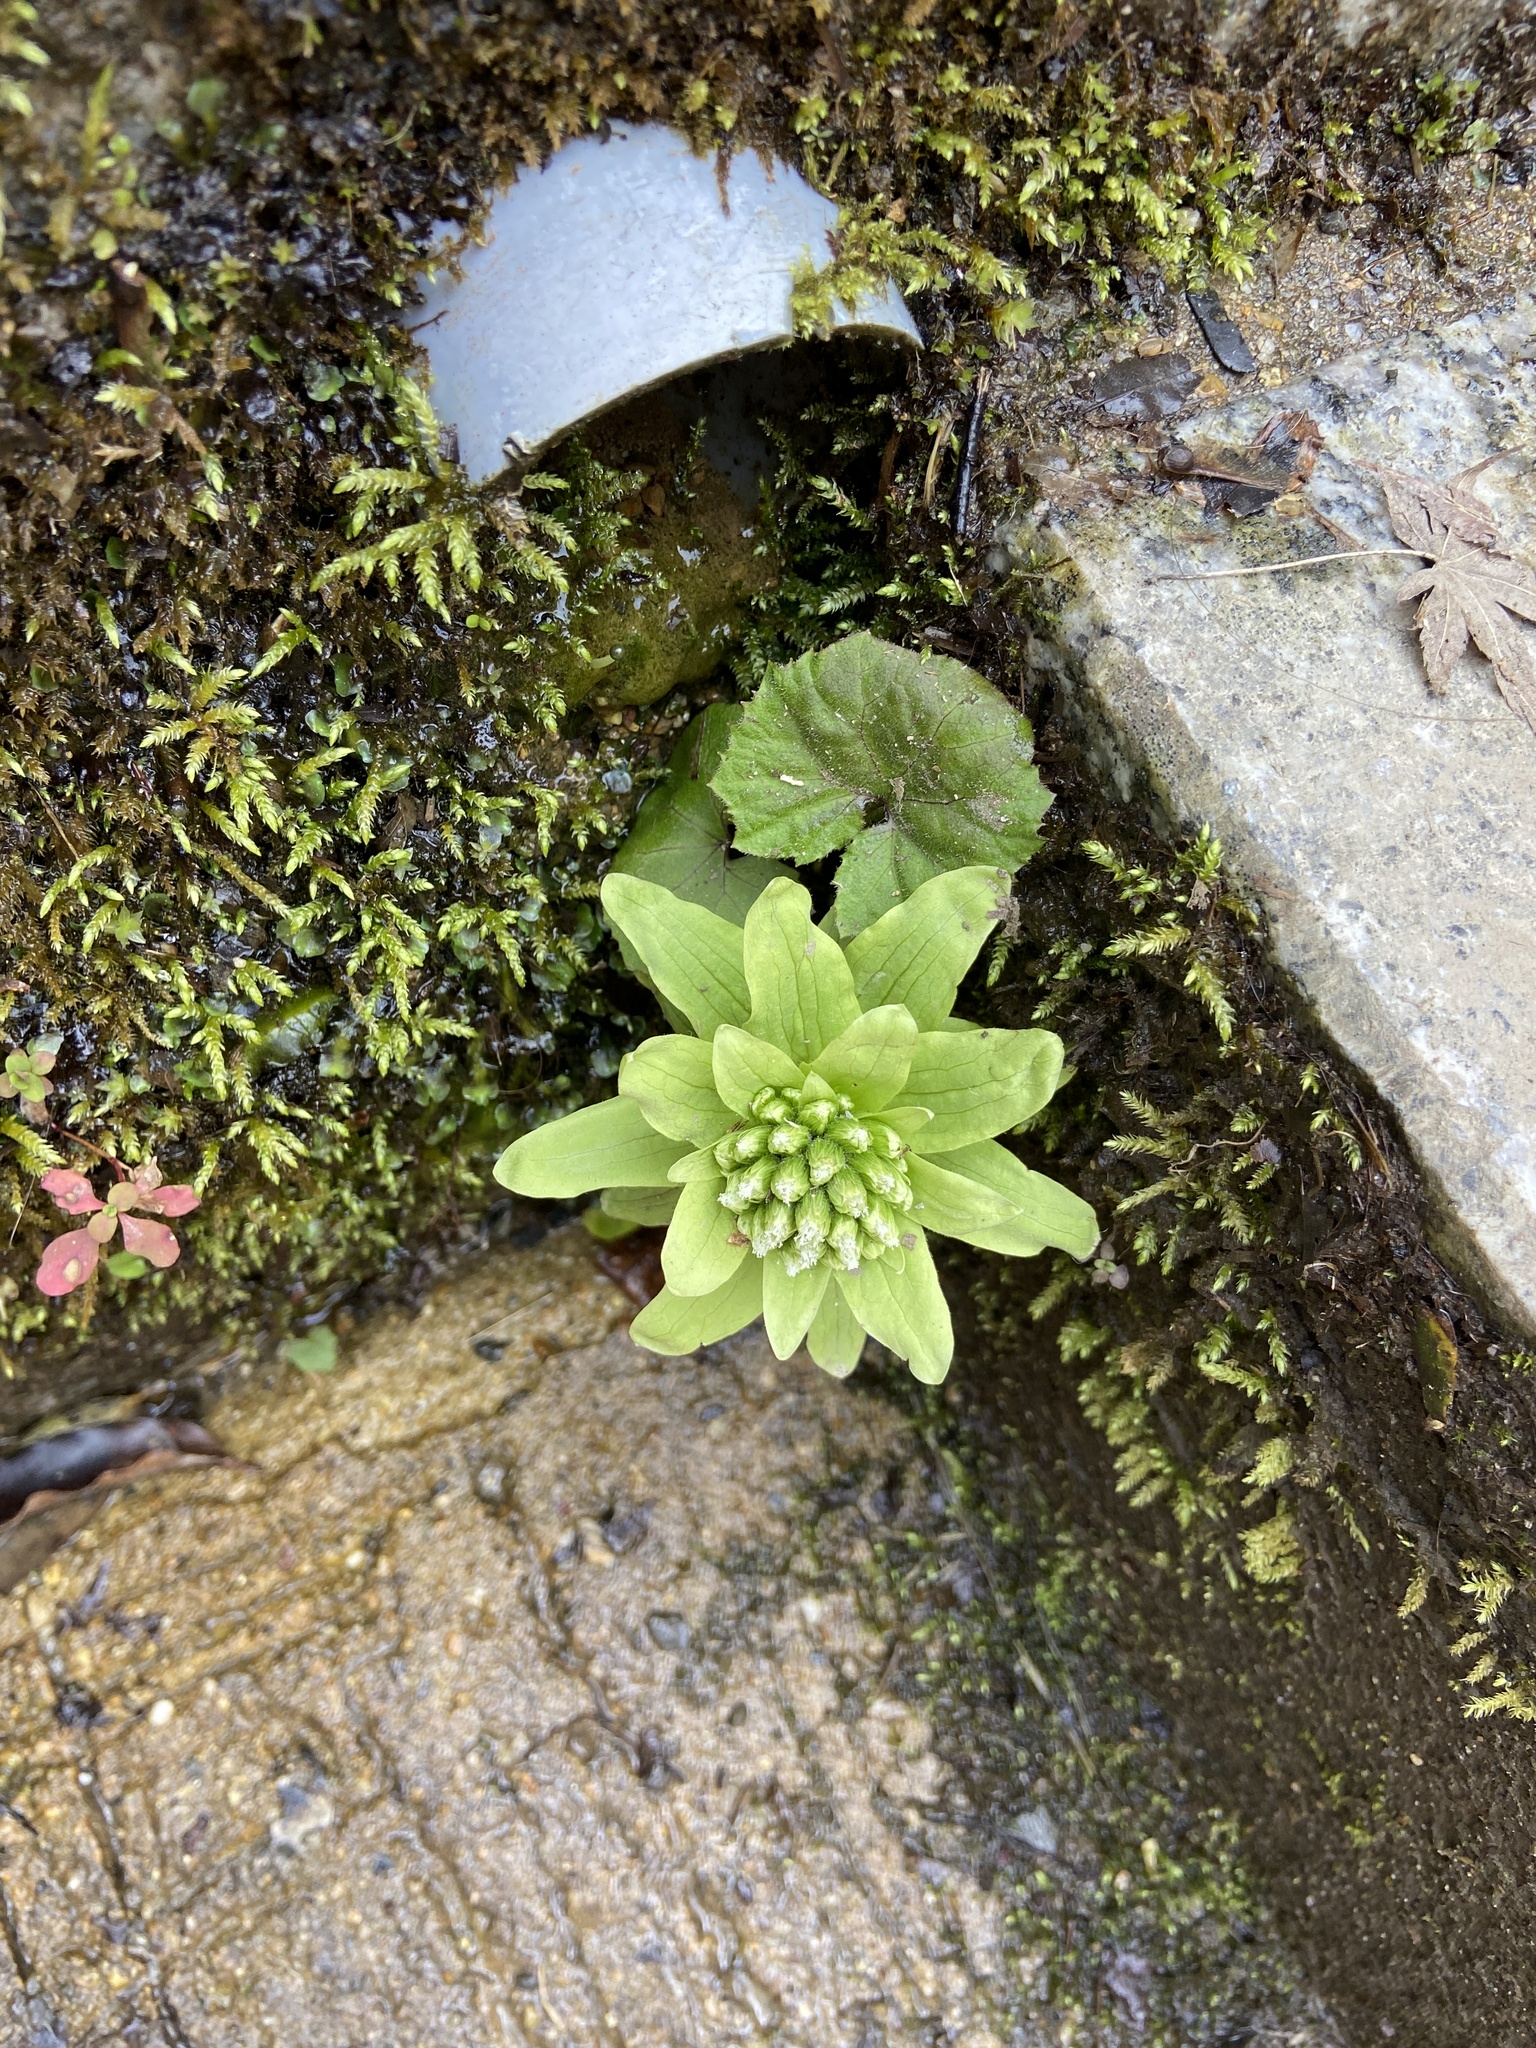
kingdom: Plantae
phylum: Tracheophyta
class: Magnoliopsida
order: Asterales
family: Asteraceae
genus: Petasites
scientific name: Petasites japonicus
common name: Giant butterbur
